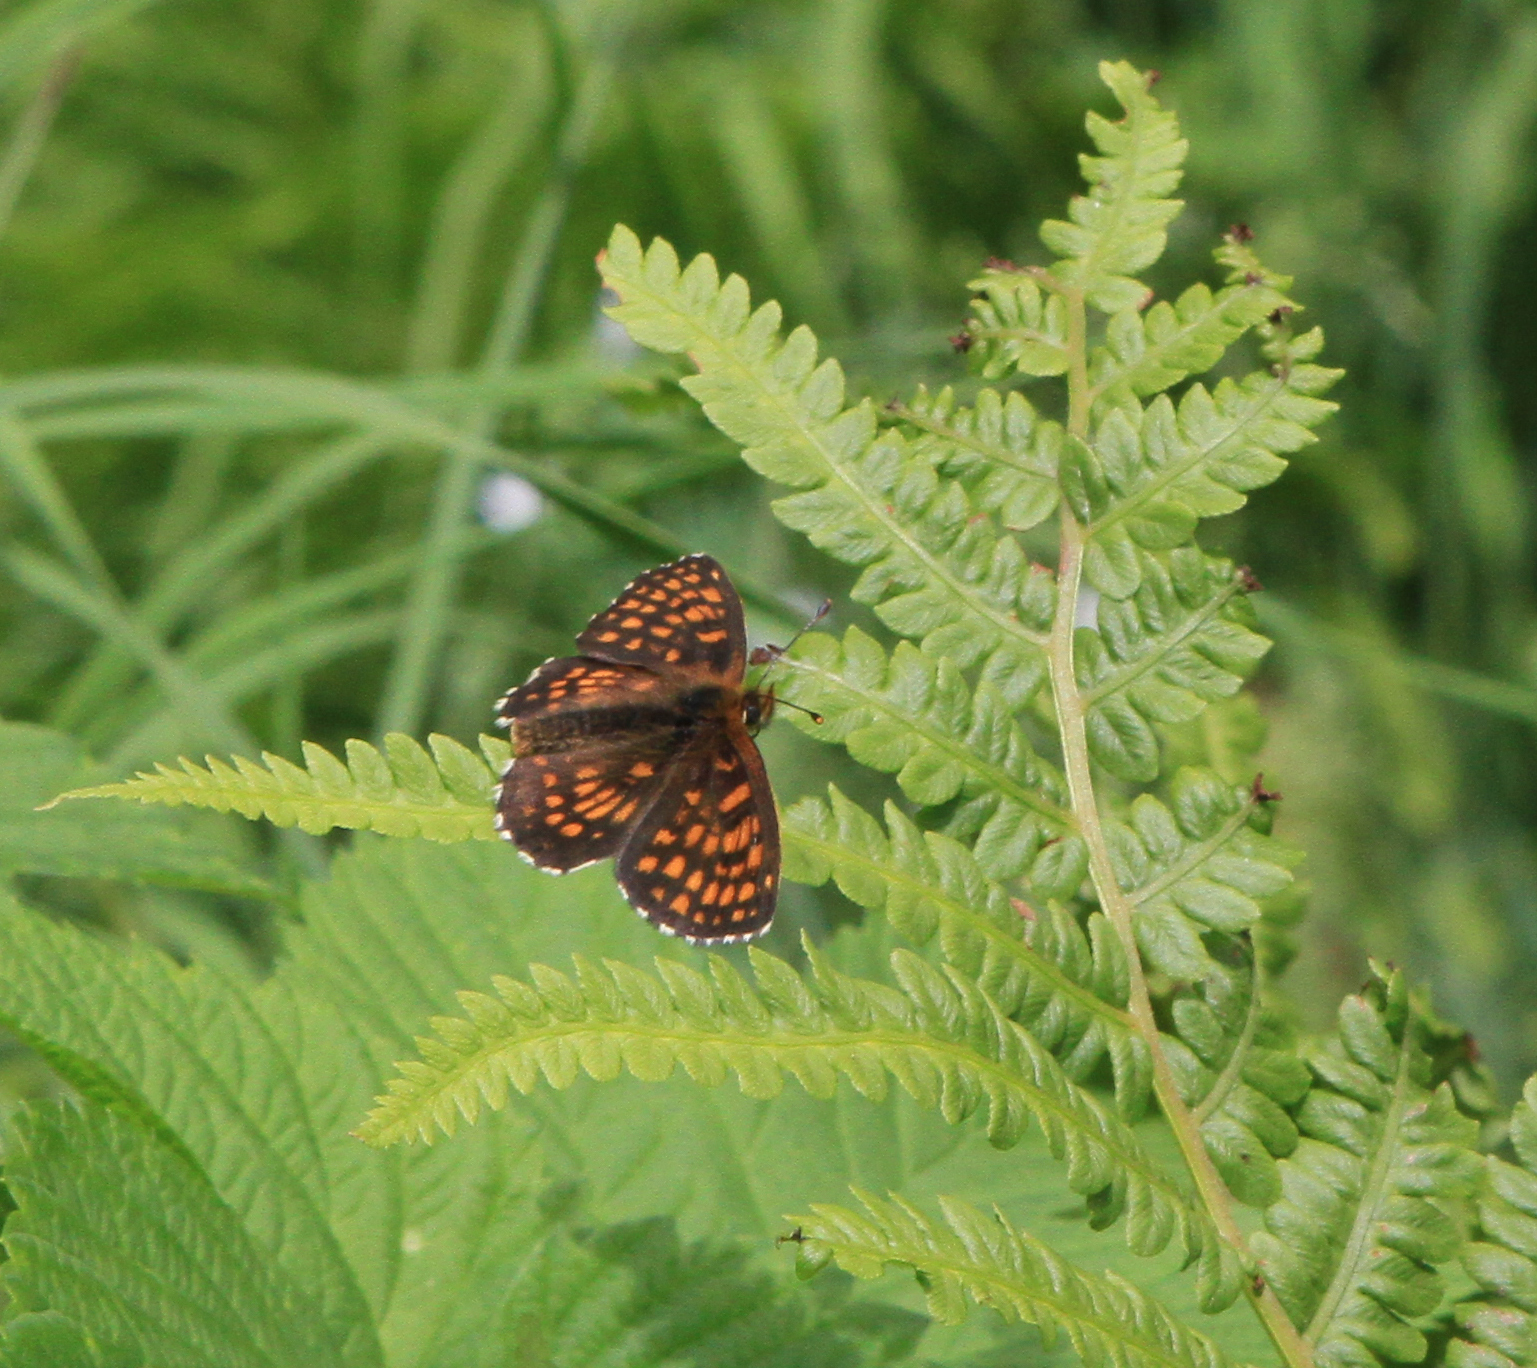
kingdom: Animalia
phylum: Arthropoda
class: Insecta
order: Lepidoptera
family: Nymphalidae
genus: Melitaea
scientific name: Melitaea
